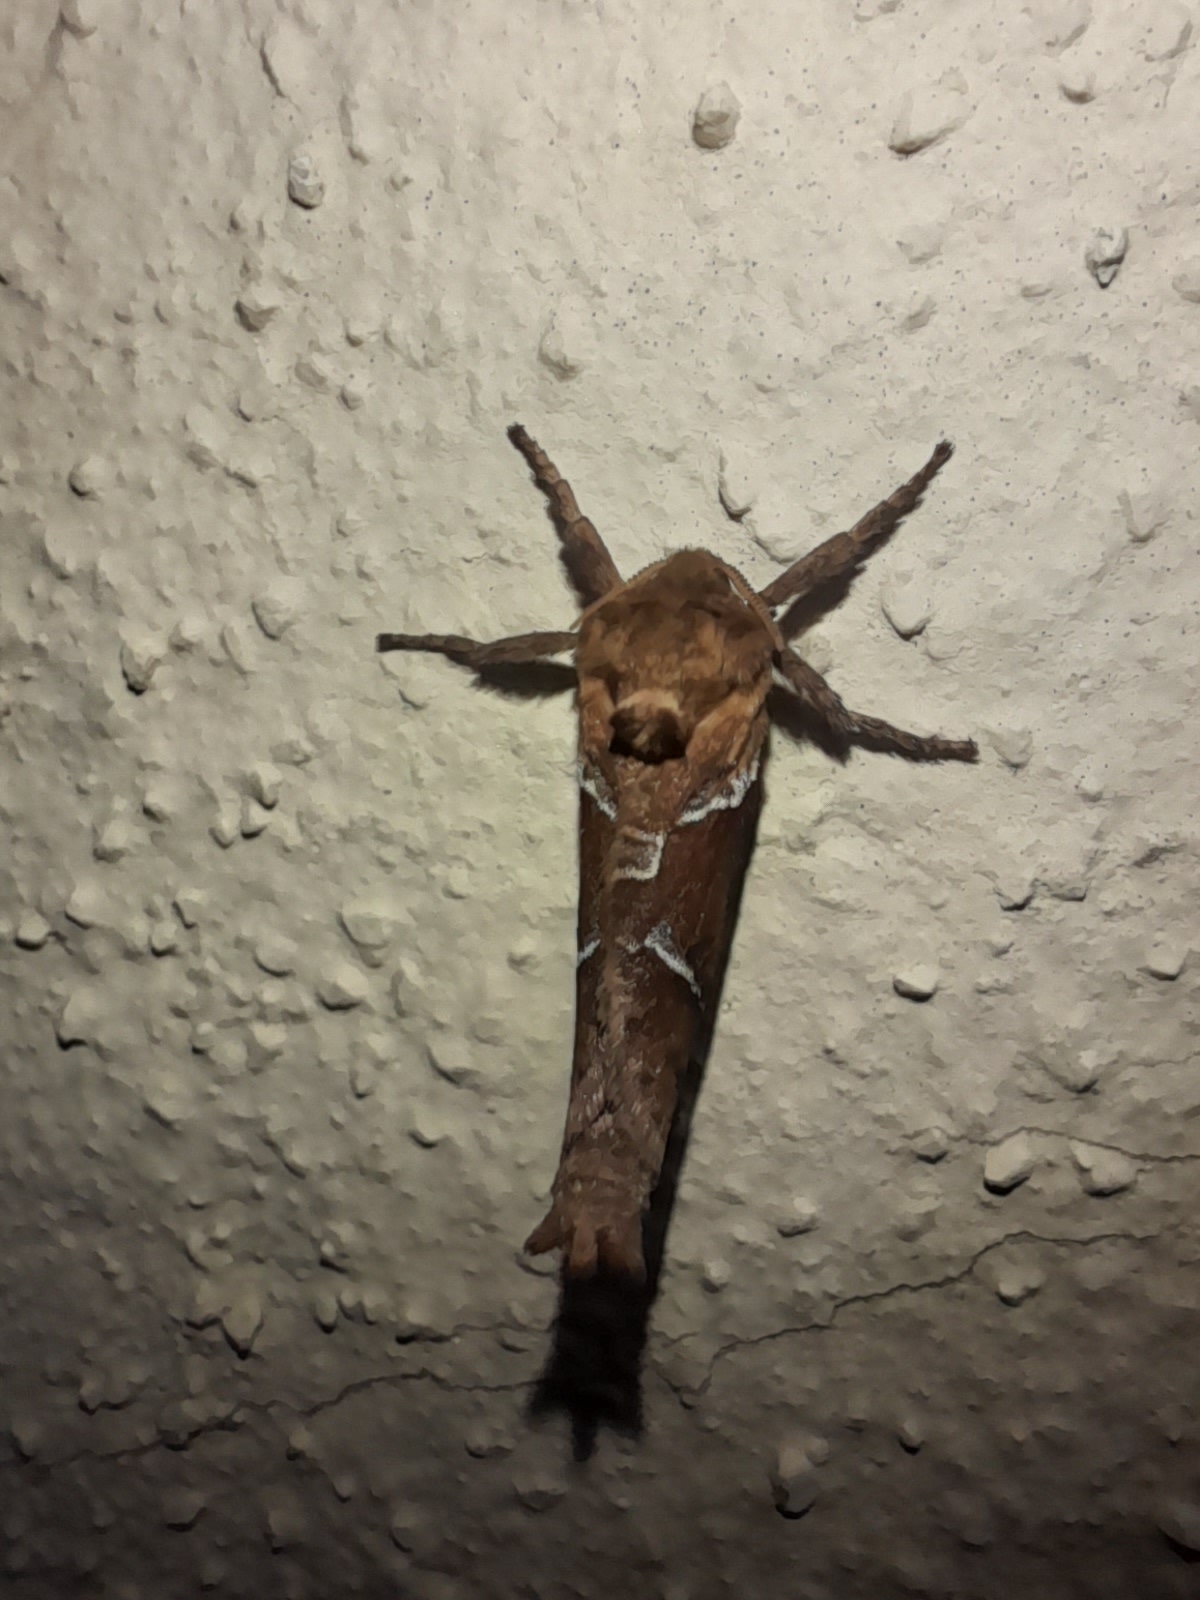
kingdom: Animalia
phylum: Arthropoda
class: Insecta
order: Lepidoptera
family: Hepialidae
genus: Triodia
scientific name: Triodia sylvina
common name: Orange swift
